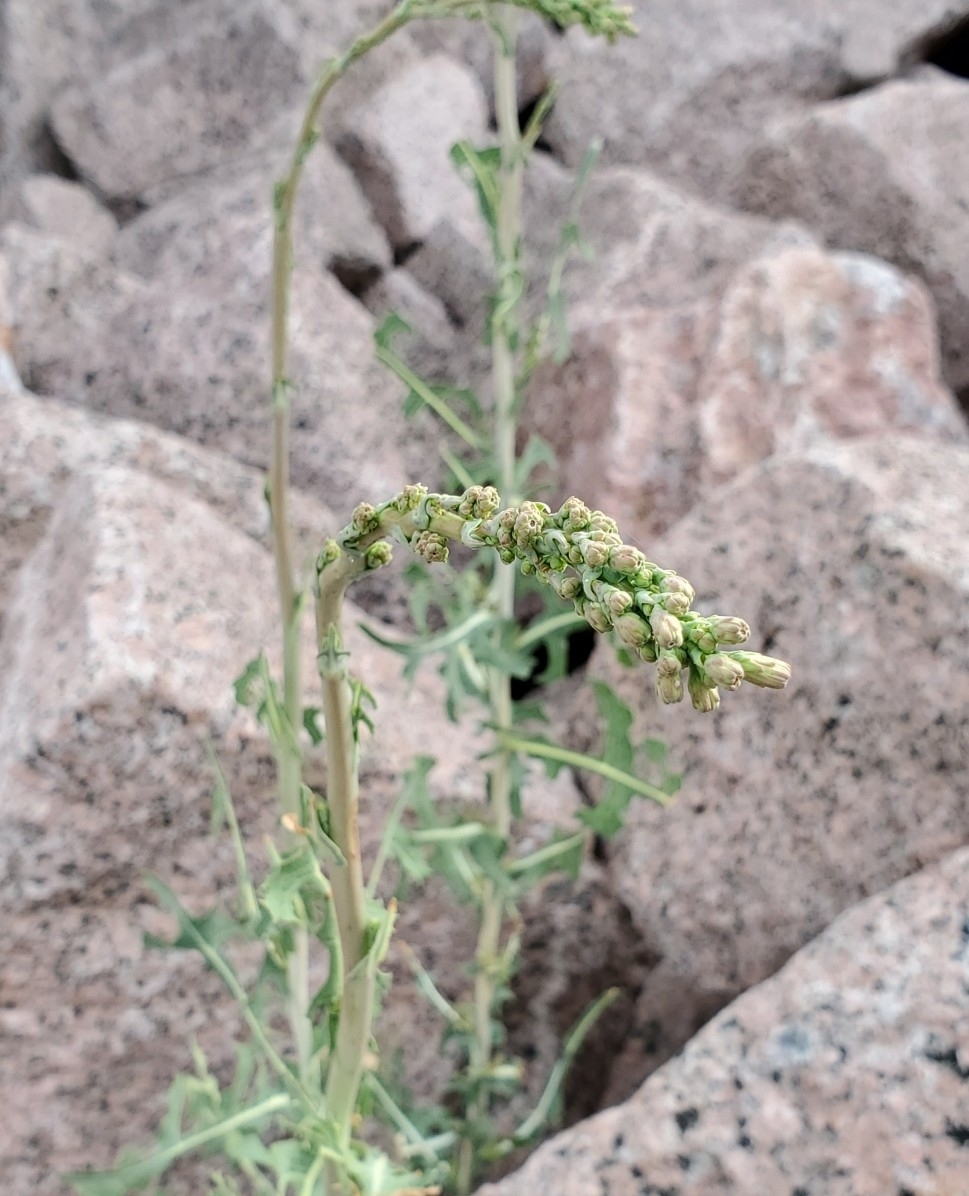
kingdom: Plantae
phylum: Tracheophyta
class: Magnoliopsida
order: Asterales
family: Asteraceae
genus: Lactuca
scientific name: Lactuca serriola
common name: Prickly lettuce
